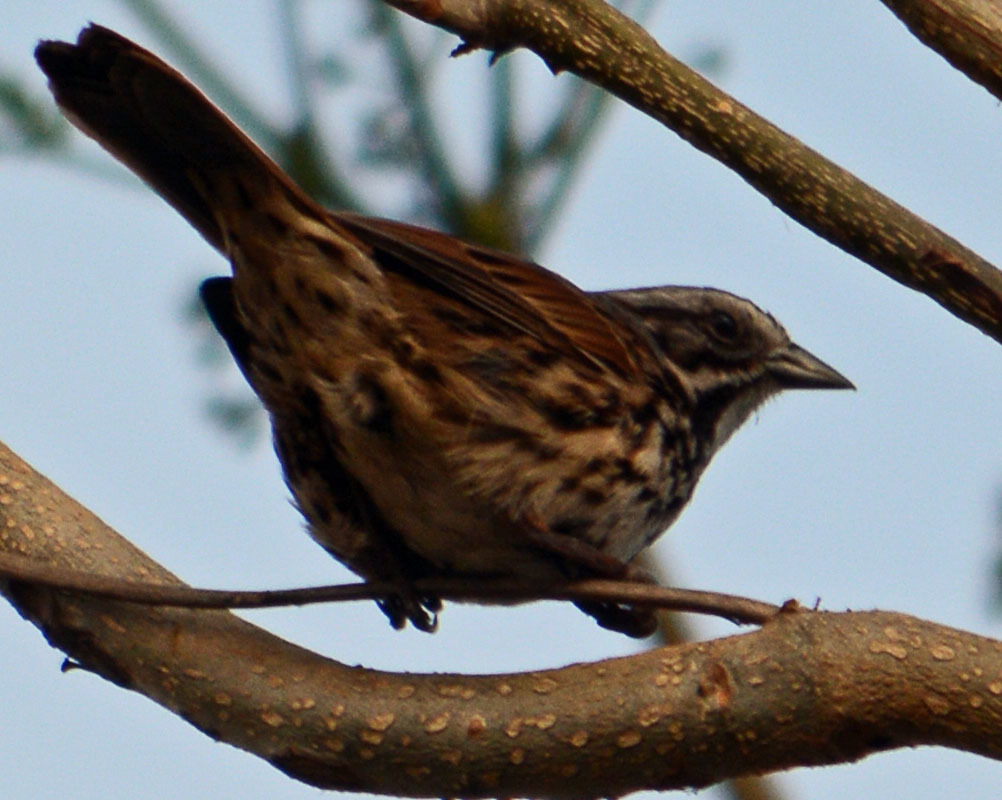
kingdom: Animalia
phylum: Chordata
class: Aves
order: Passeriformes
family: Passerellidae
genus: Melospiza
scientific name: Melospiza melodia
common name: Song sparrow
